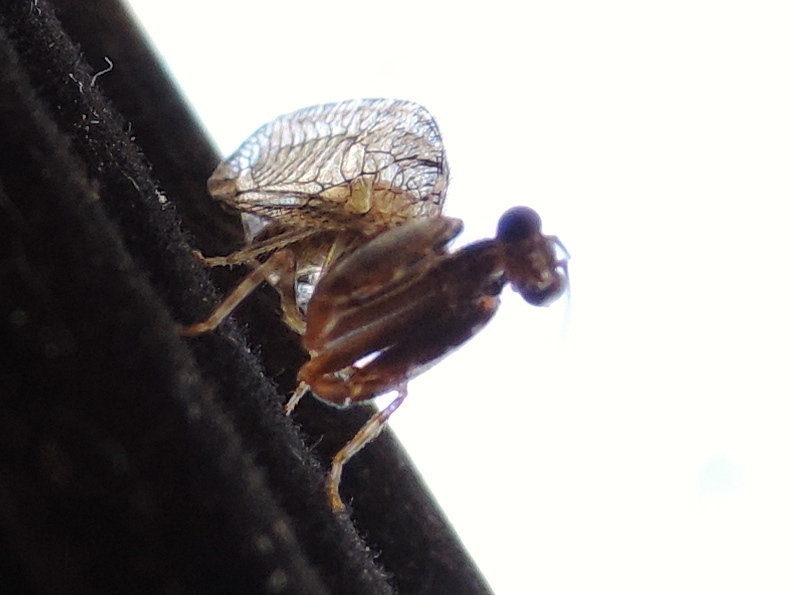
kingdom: Animalia
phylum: Arthropoda
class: Insecta
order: Neuroptera
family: Mantispidae
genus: Trichoscelia
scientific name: Trichoscelia
